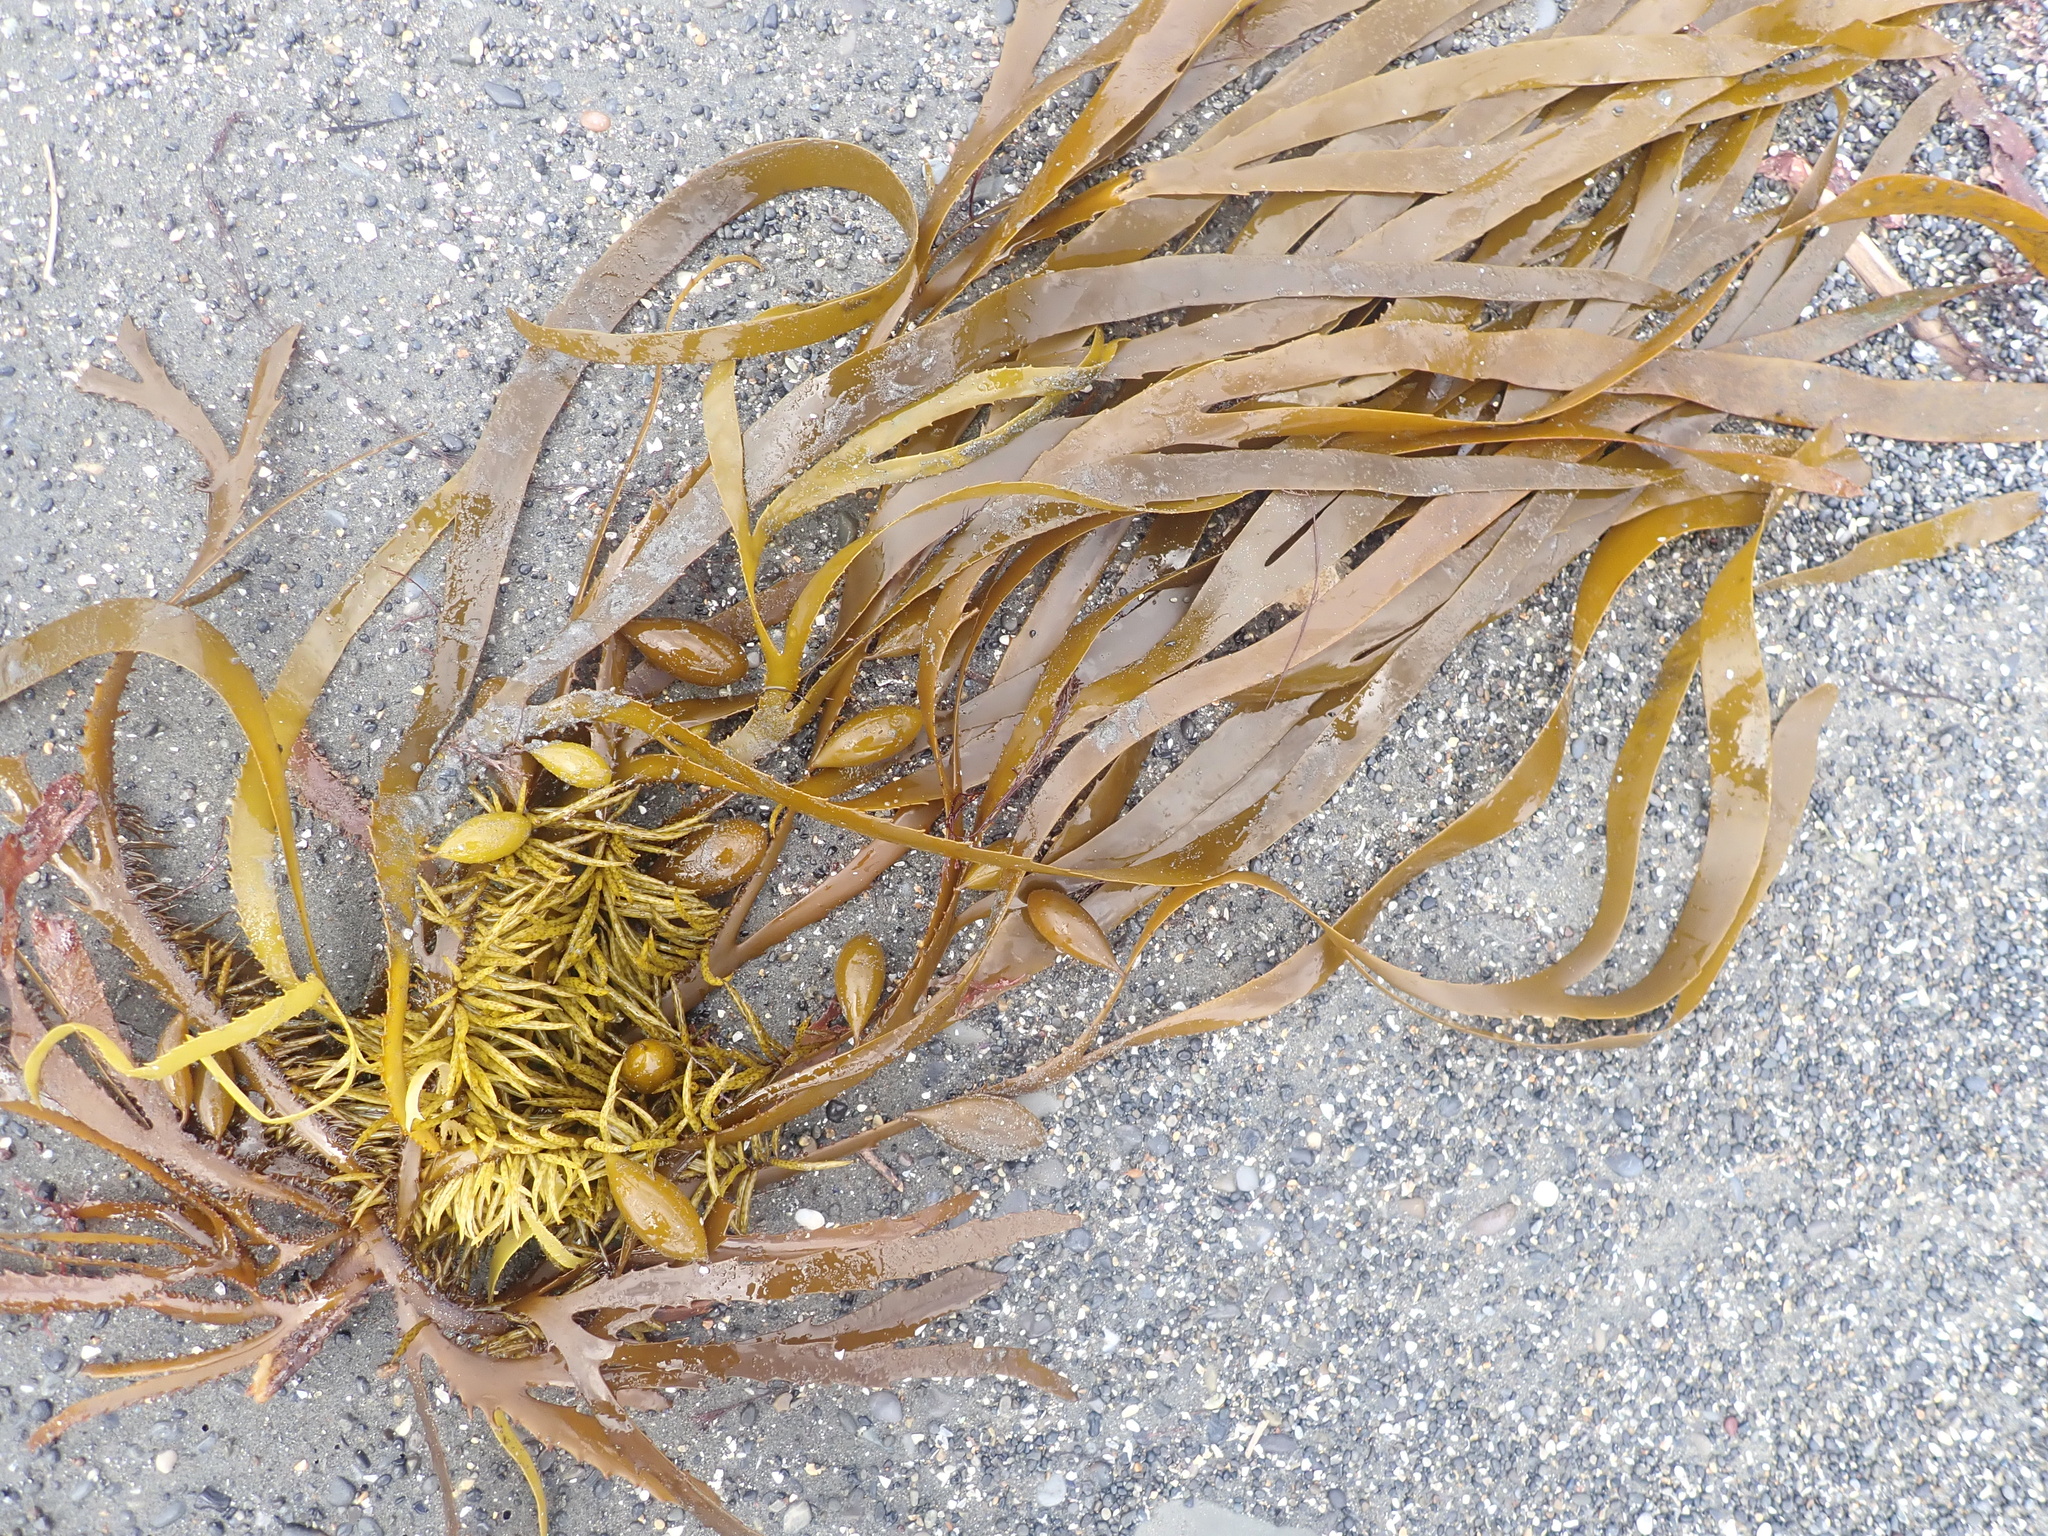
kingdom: Chromista
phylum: Ochrophyta
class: Phaeophyceae
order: Fucales
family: Seirococcaceae
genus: Marginariella
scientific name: Marginariella boryana
